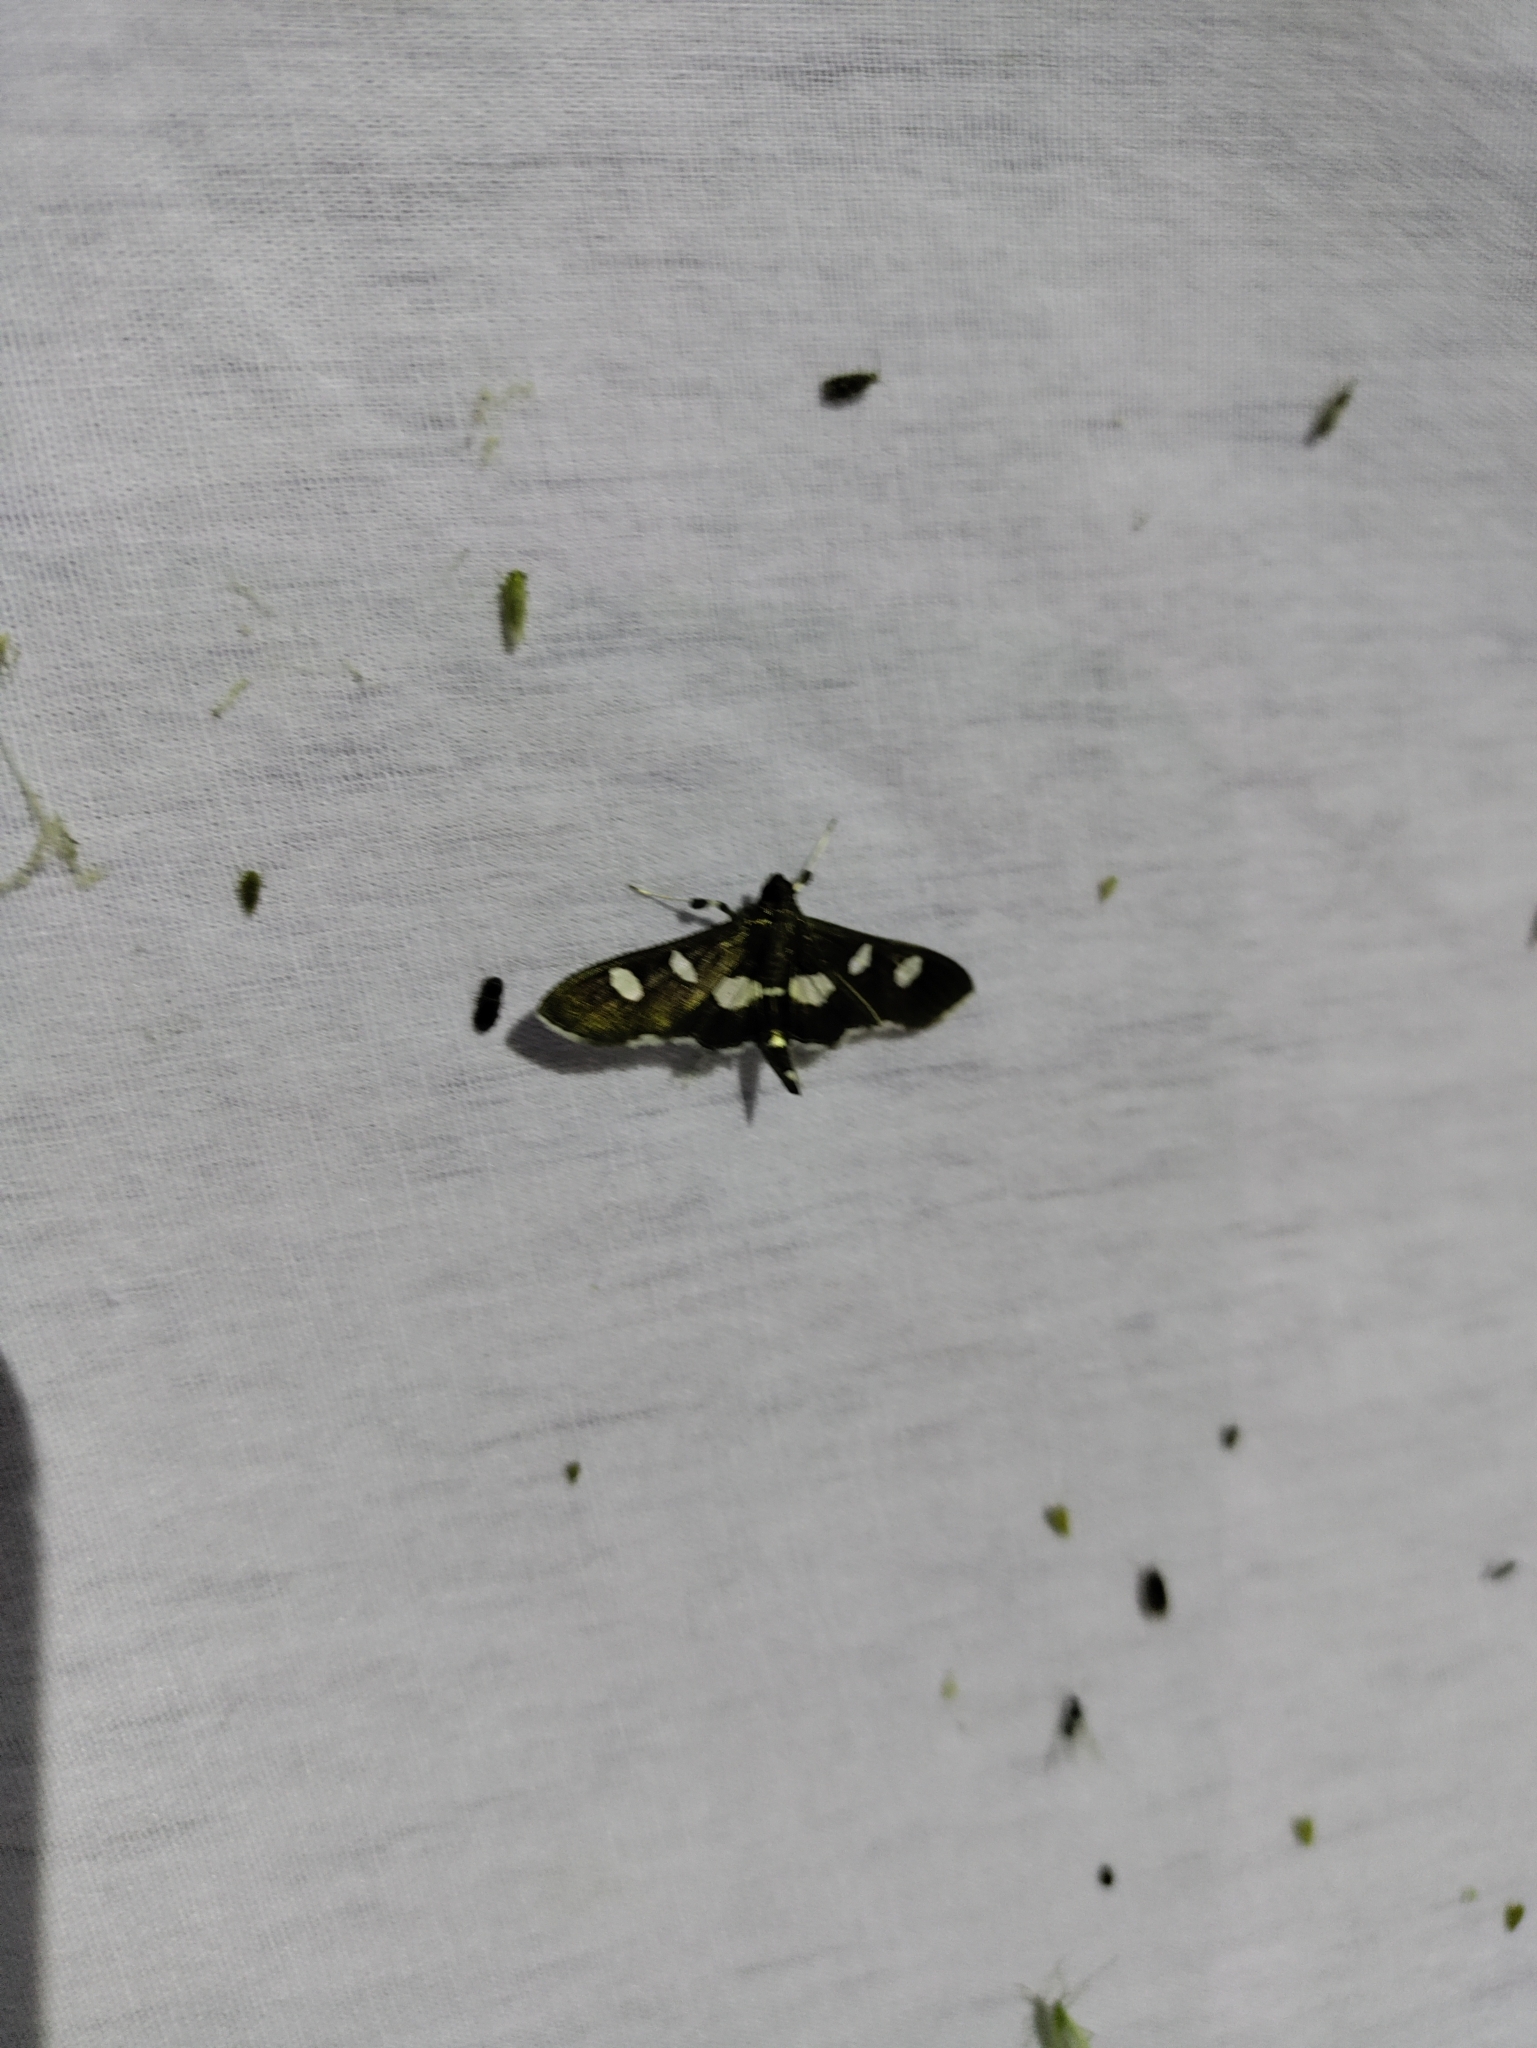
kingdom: Animalia
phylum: Arthropoda
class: Insecta
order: Lepidoptera
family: Crambidae
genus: Desmia
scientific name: Desmia
